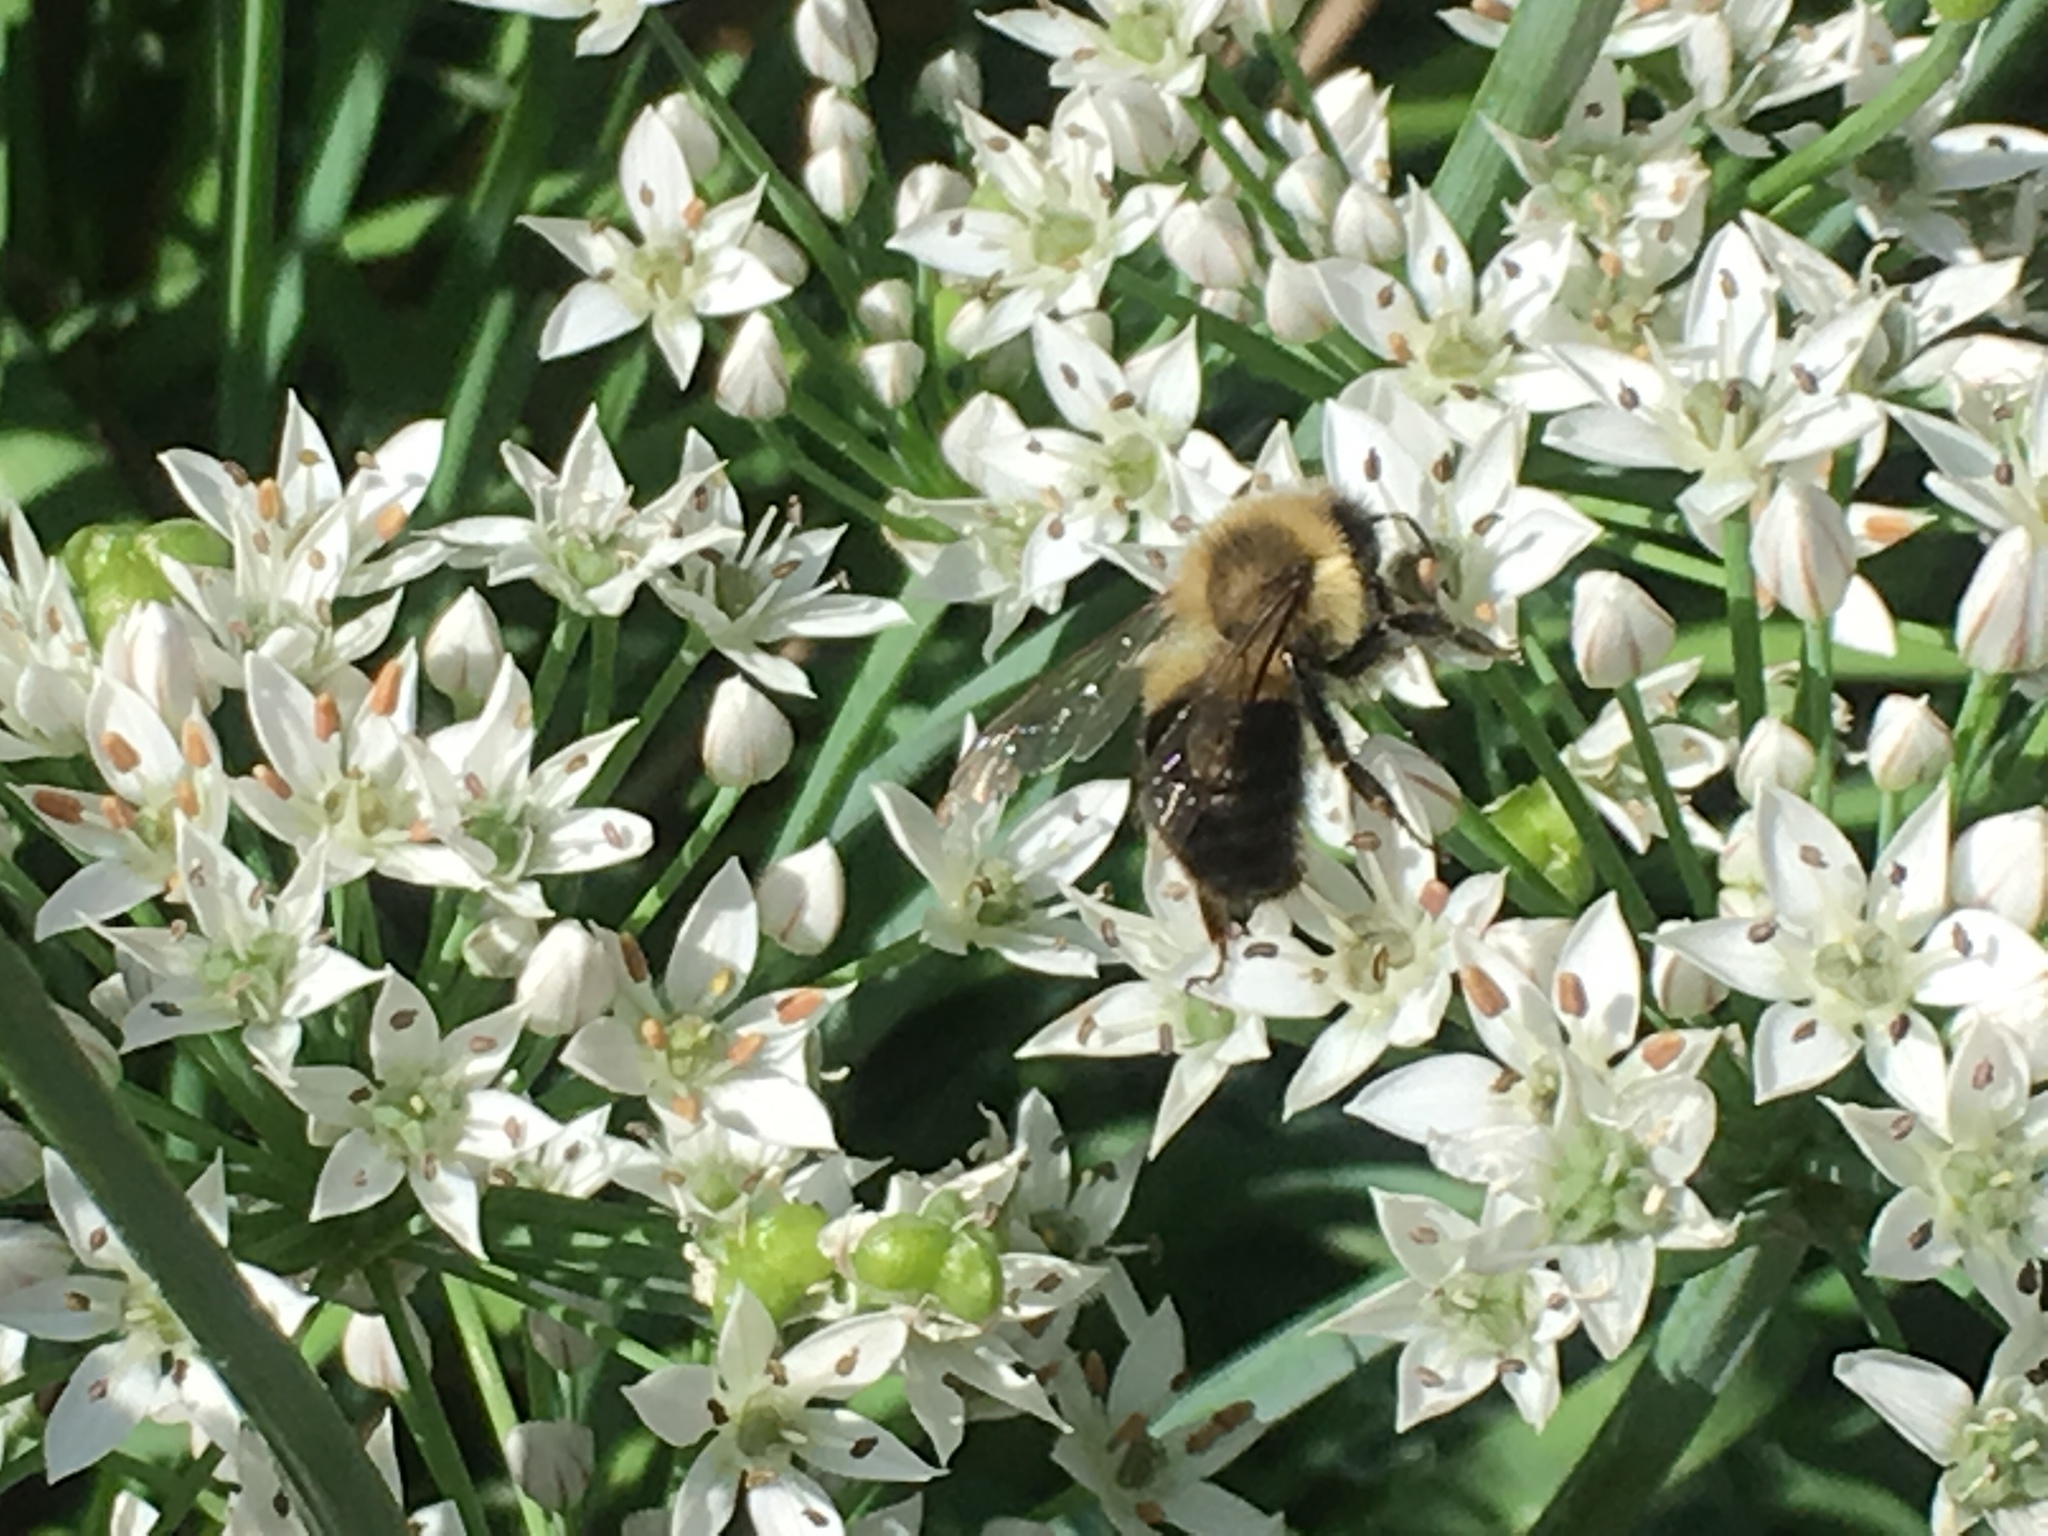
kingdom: Animalia
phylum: Arthropoda
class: Insecta
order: Hymenoptera
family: Apidae
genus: Bombus
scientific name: Bombus impatiens
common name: Common eastern bumble bee
